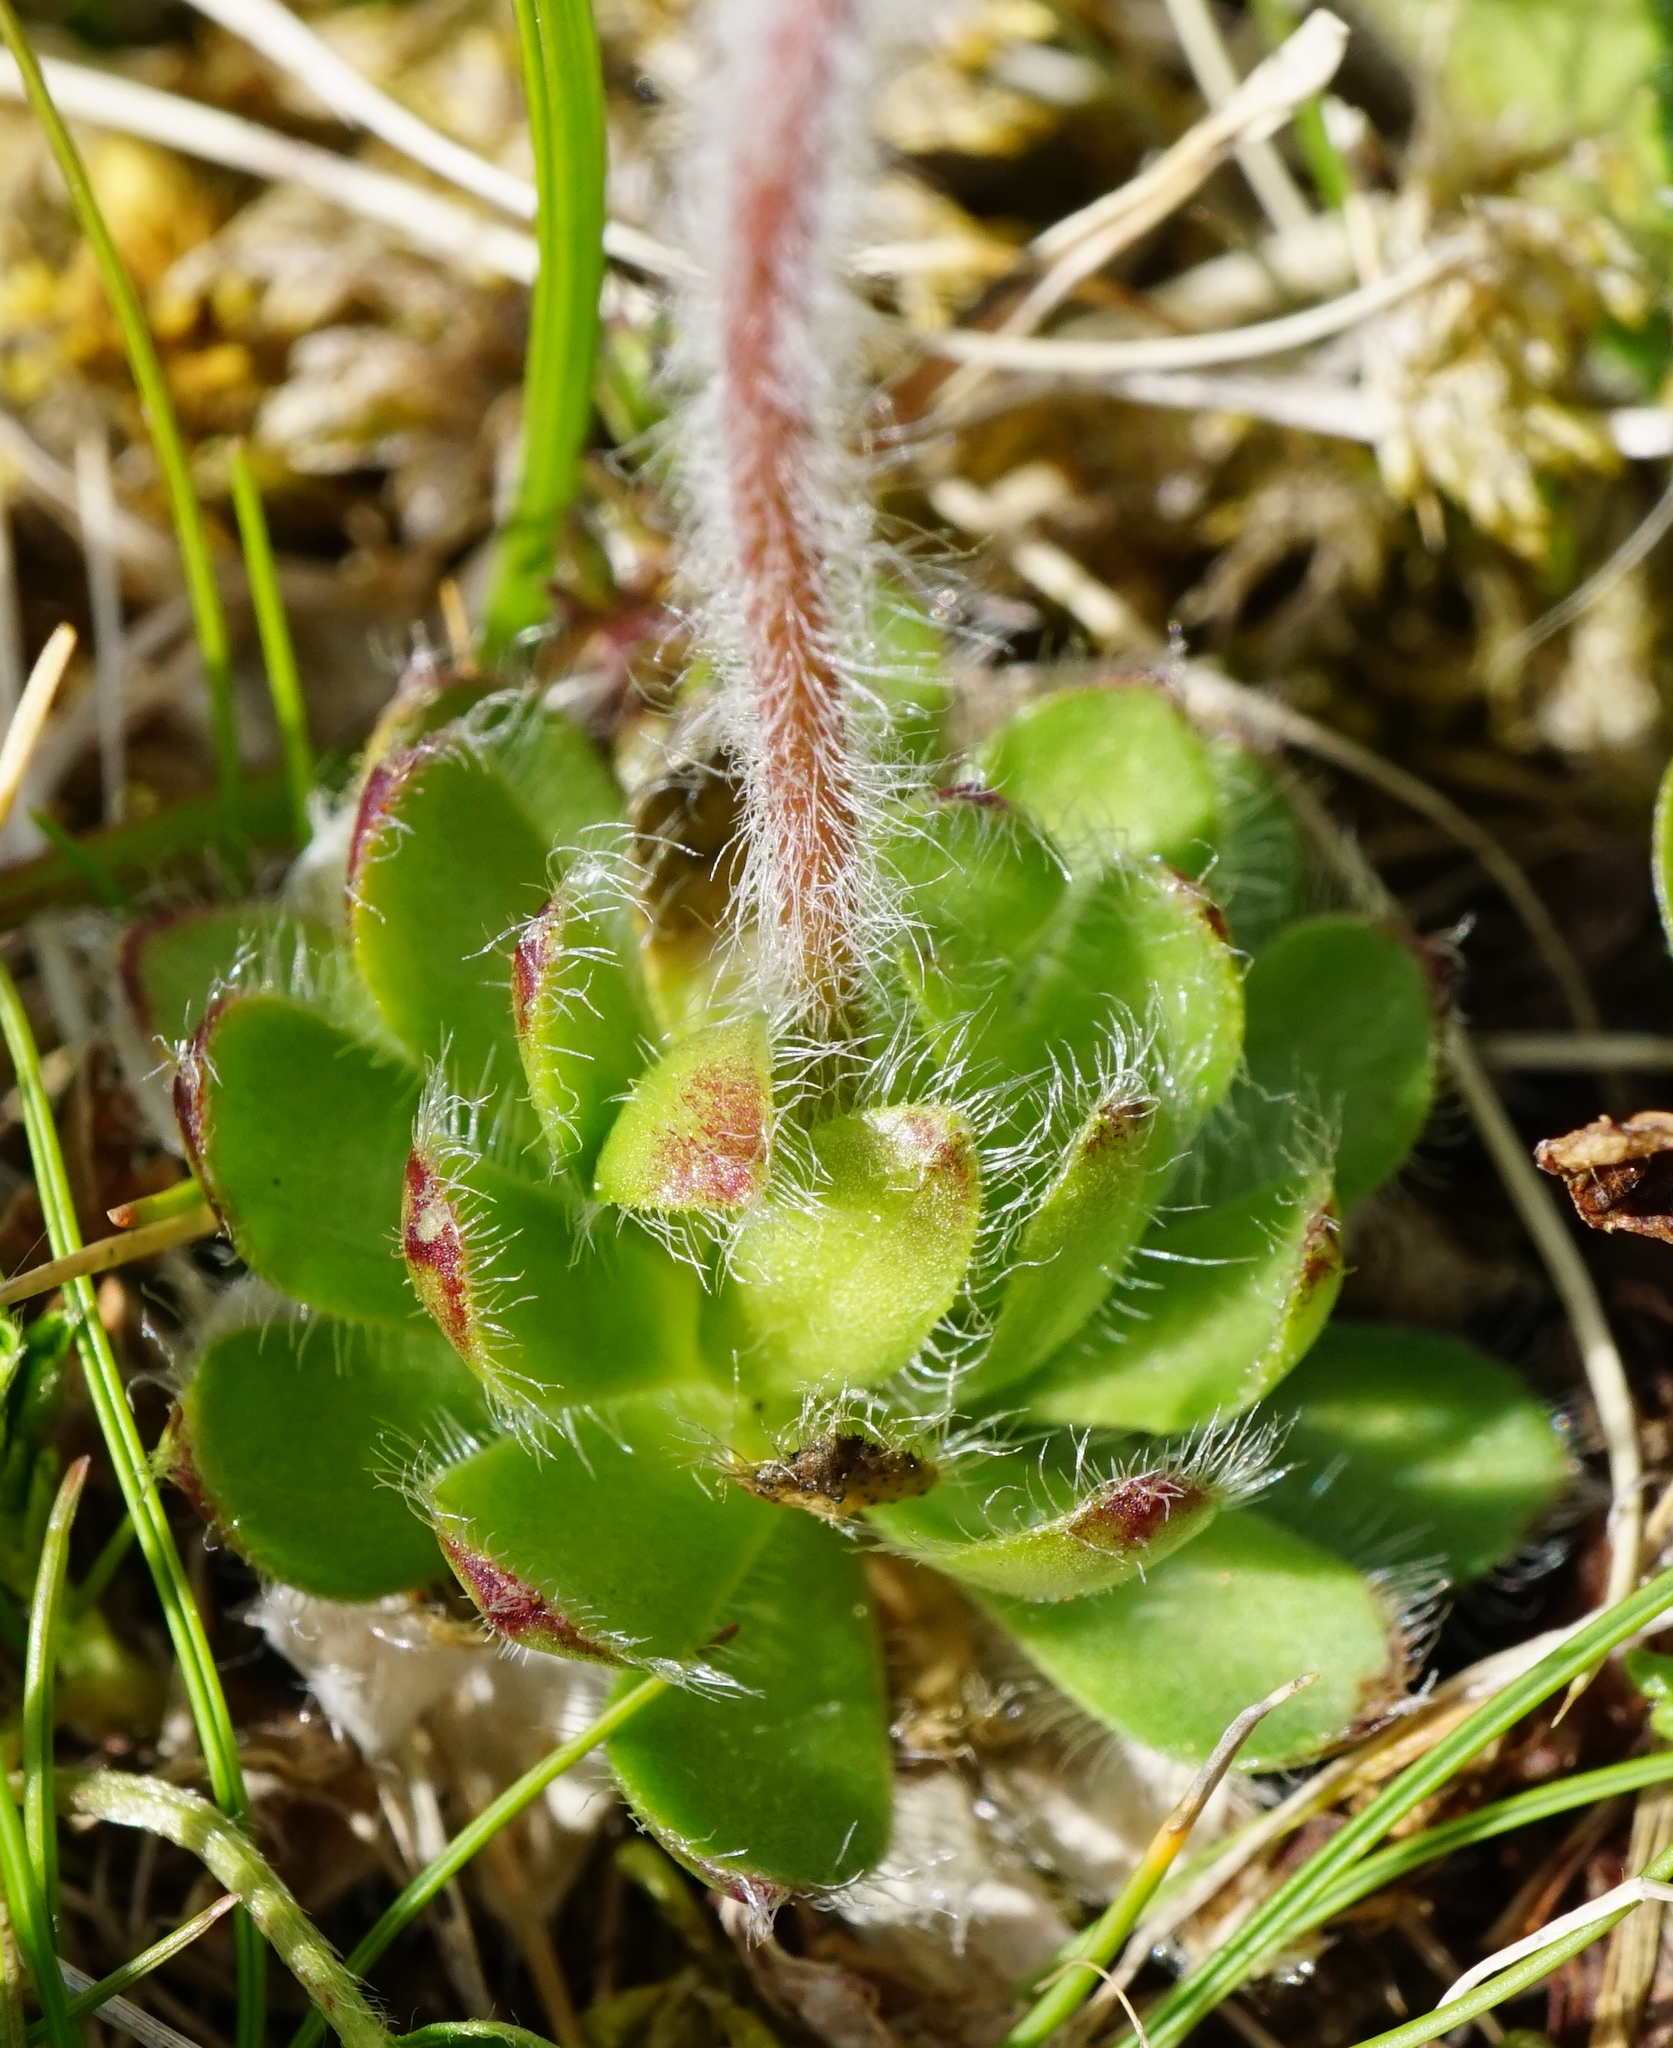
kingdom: Plantae
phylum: Tracheophyta
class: Magnoliopsida
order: Ericales
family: Primulaceae
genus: Androsace
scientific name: Androsace chamaejasme
